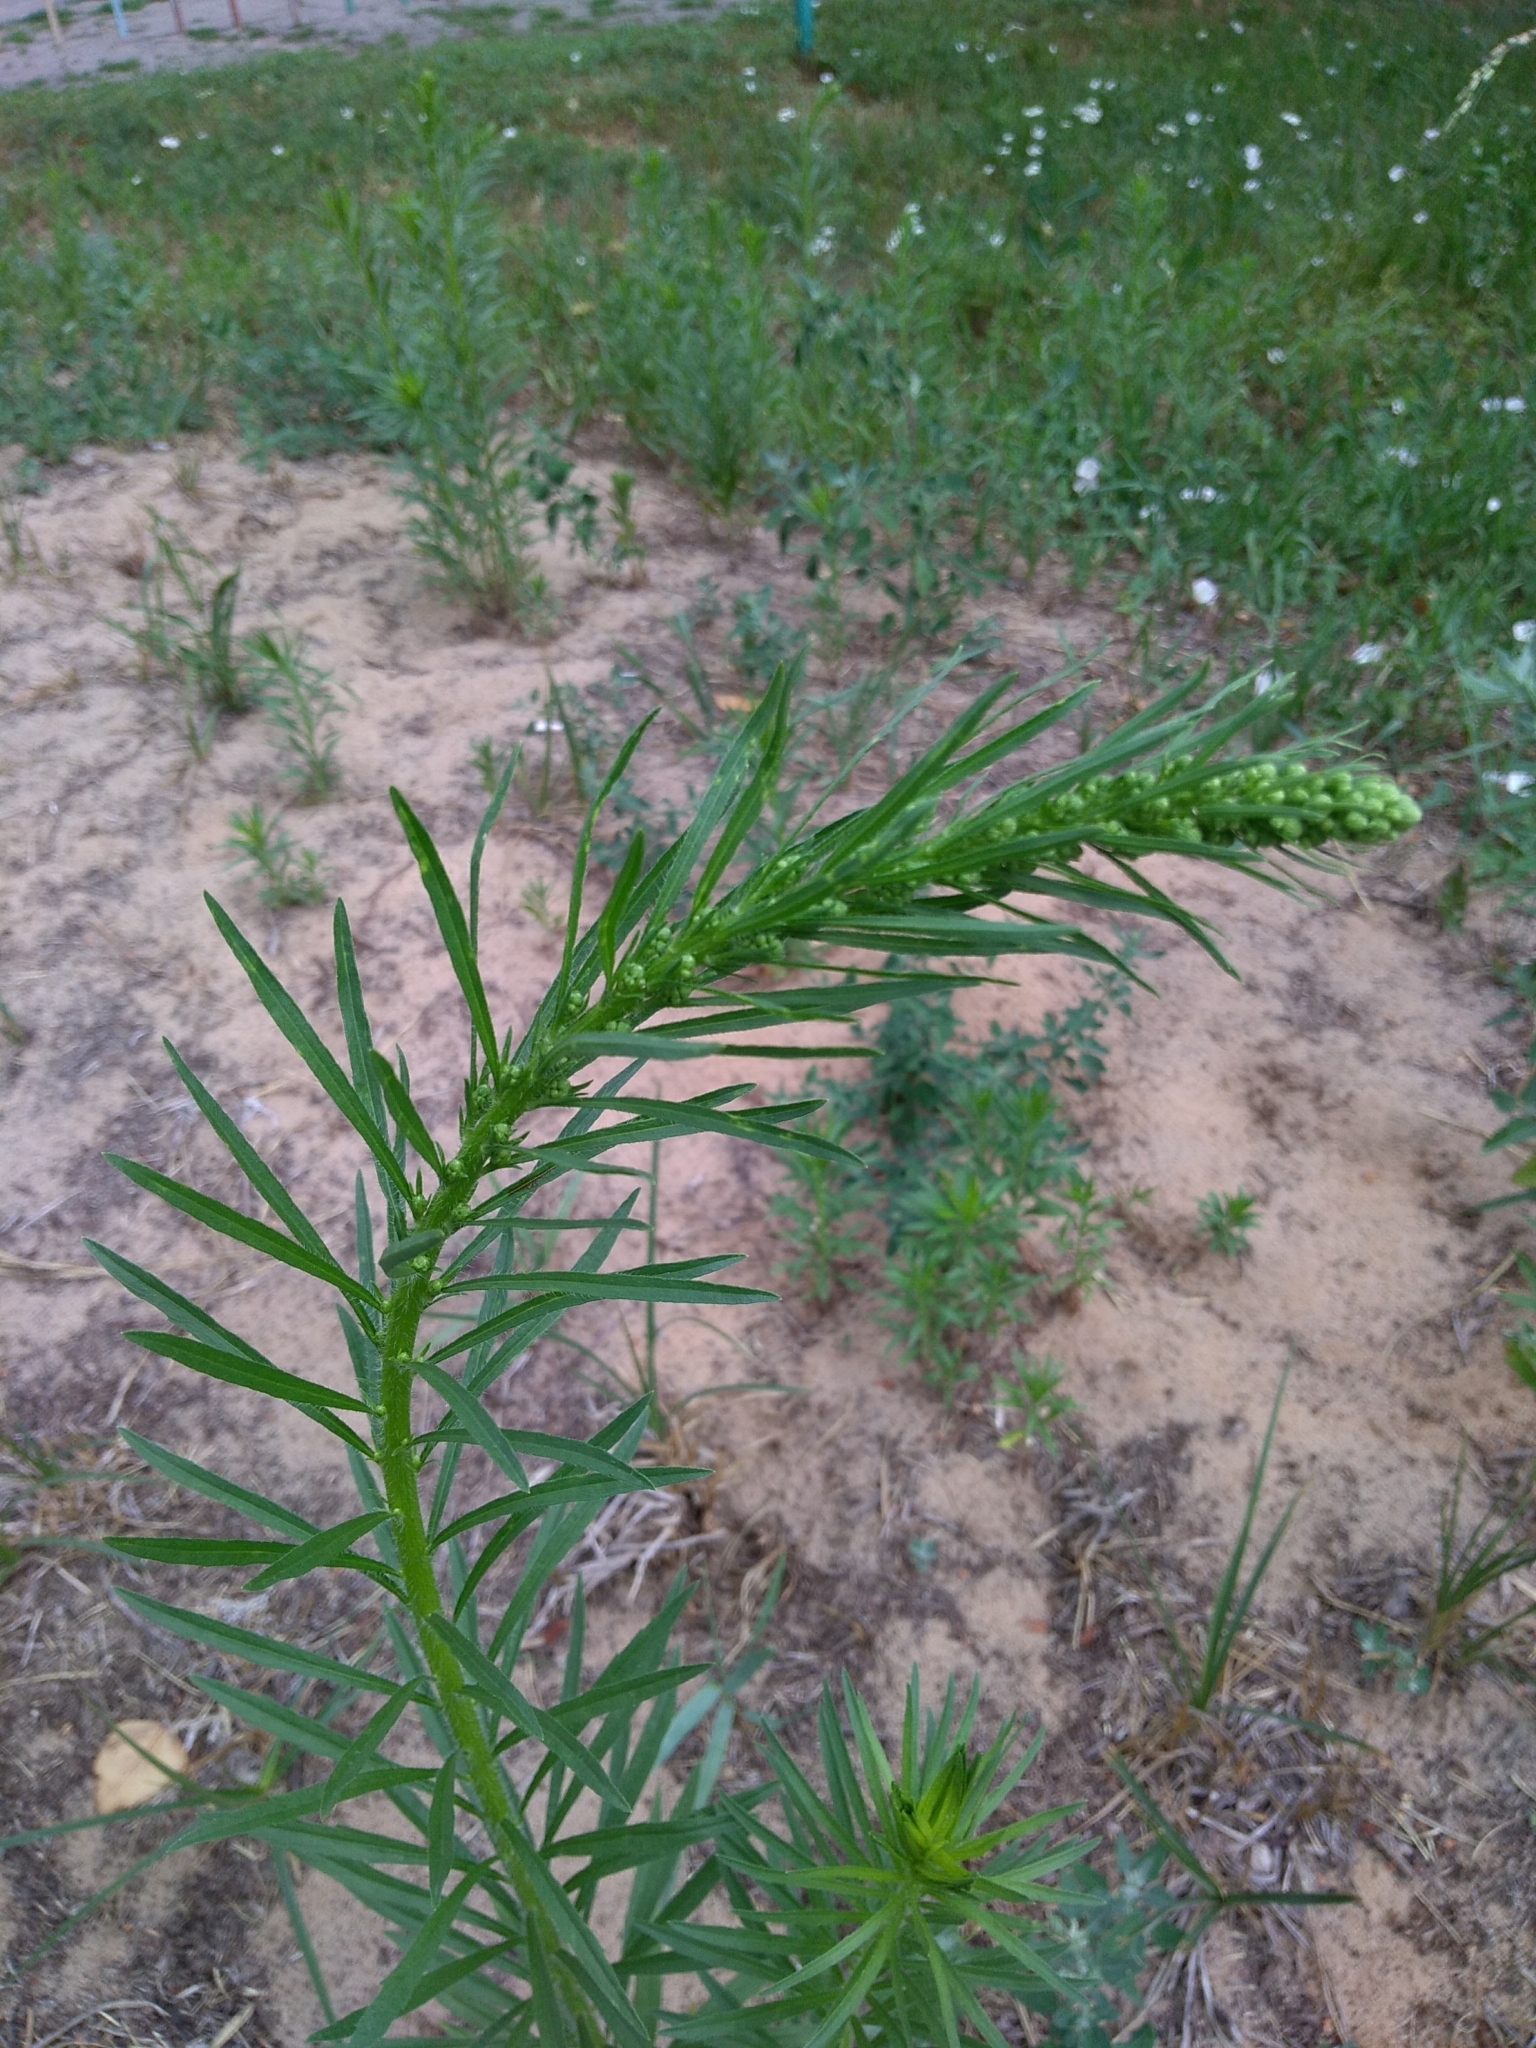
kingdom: Plantae
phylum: Tracheophyta
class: Magnoliopsida
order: Asterales
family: Asteraceae
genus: Erigeron
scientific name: Erigeron canadensis
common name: Canadian fleabane
